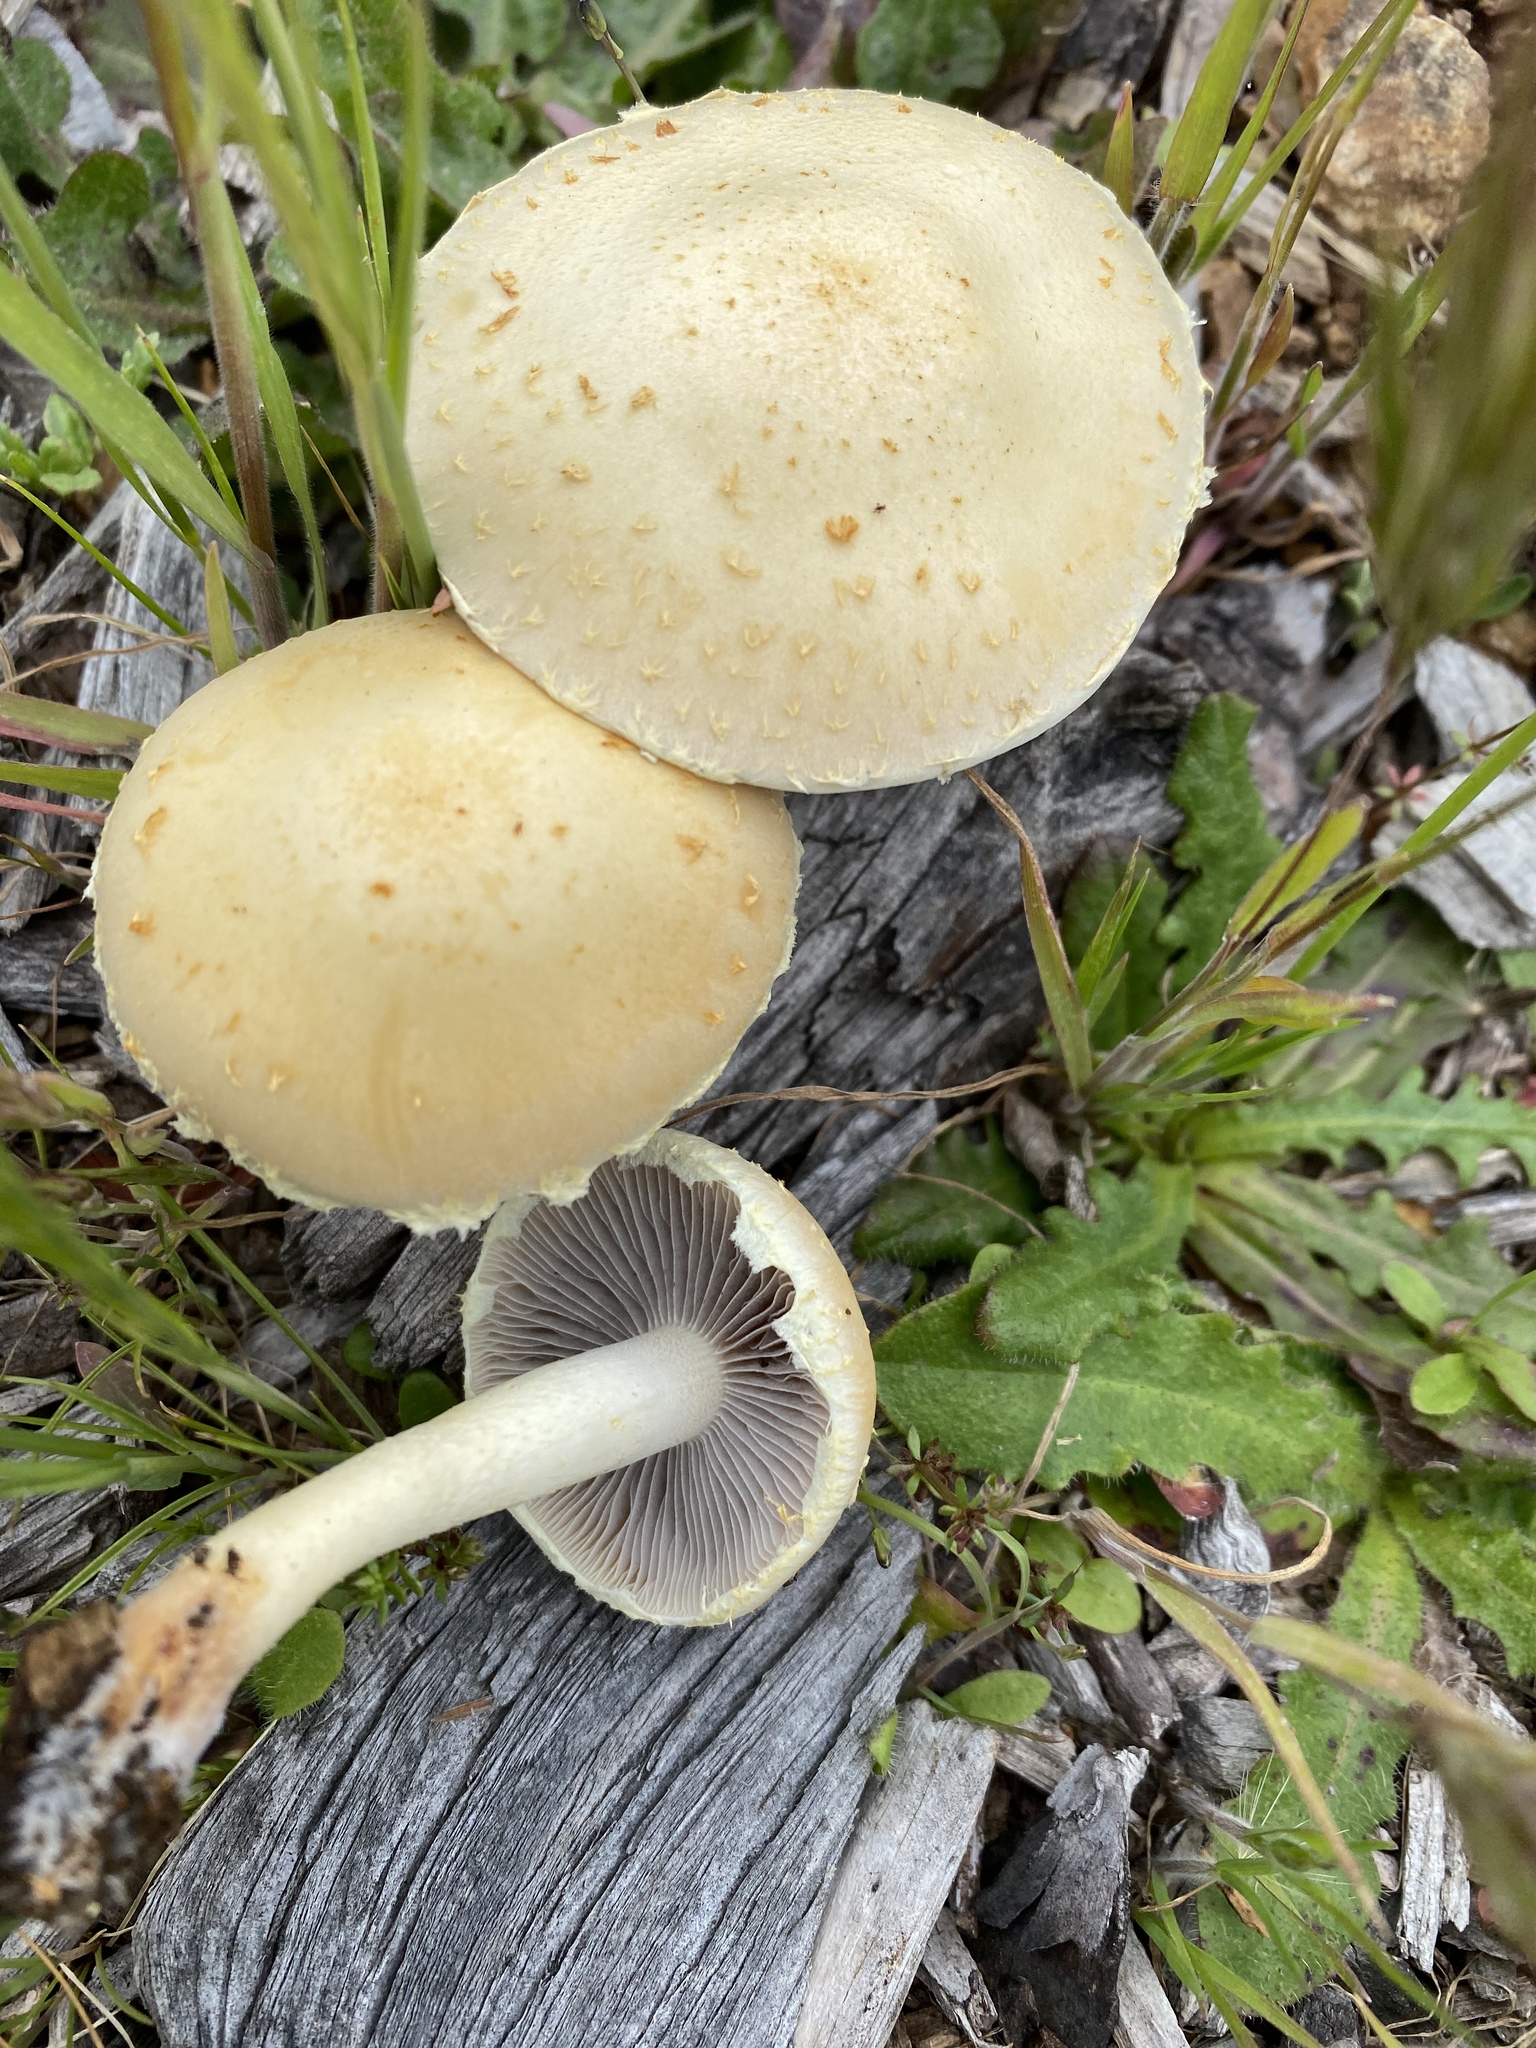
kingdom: Fungi
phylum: Basidiomycota
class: Agaricomycetes
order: Agaricales
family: Strophariaceae
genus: Leratiomyces
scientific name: Leratiomyces percevalii
